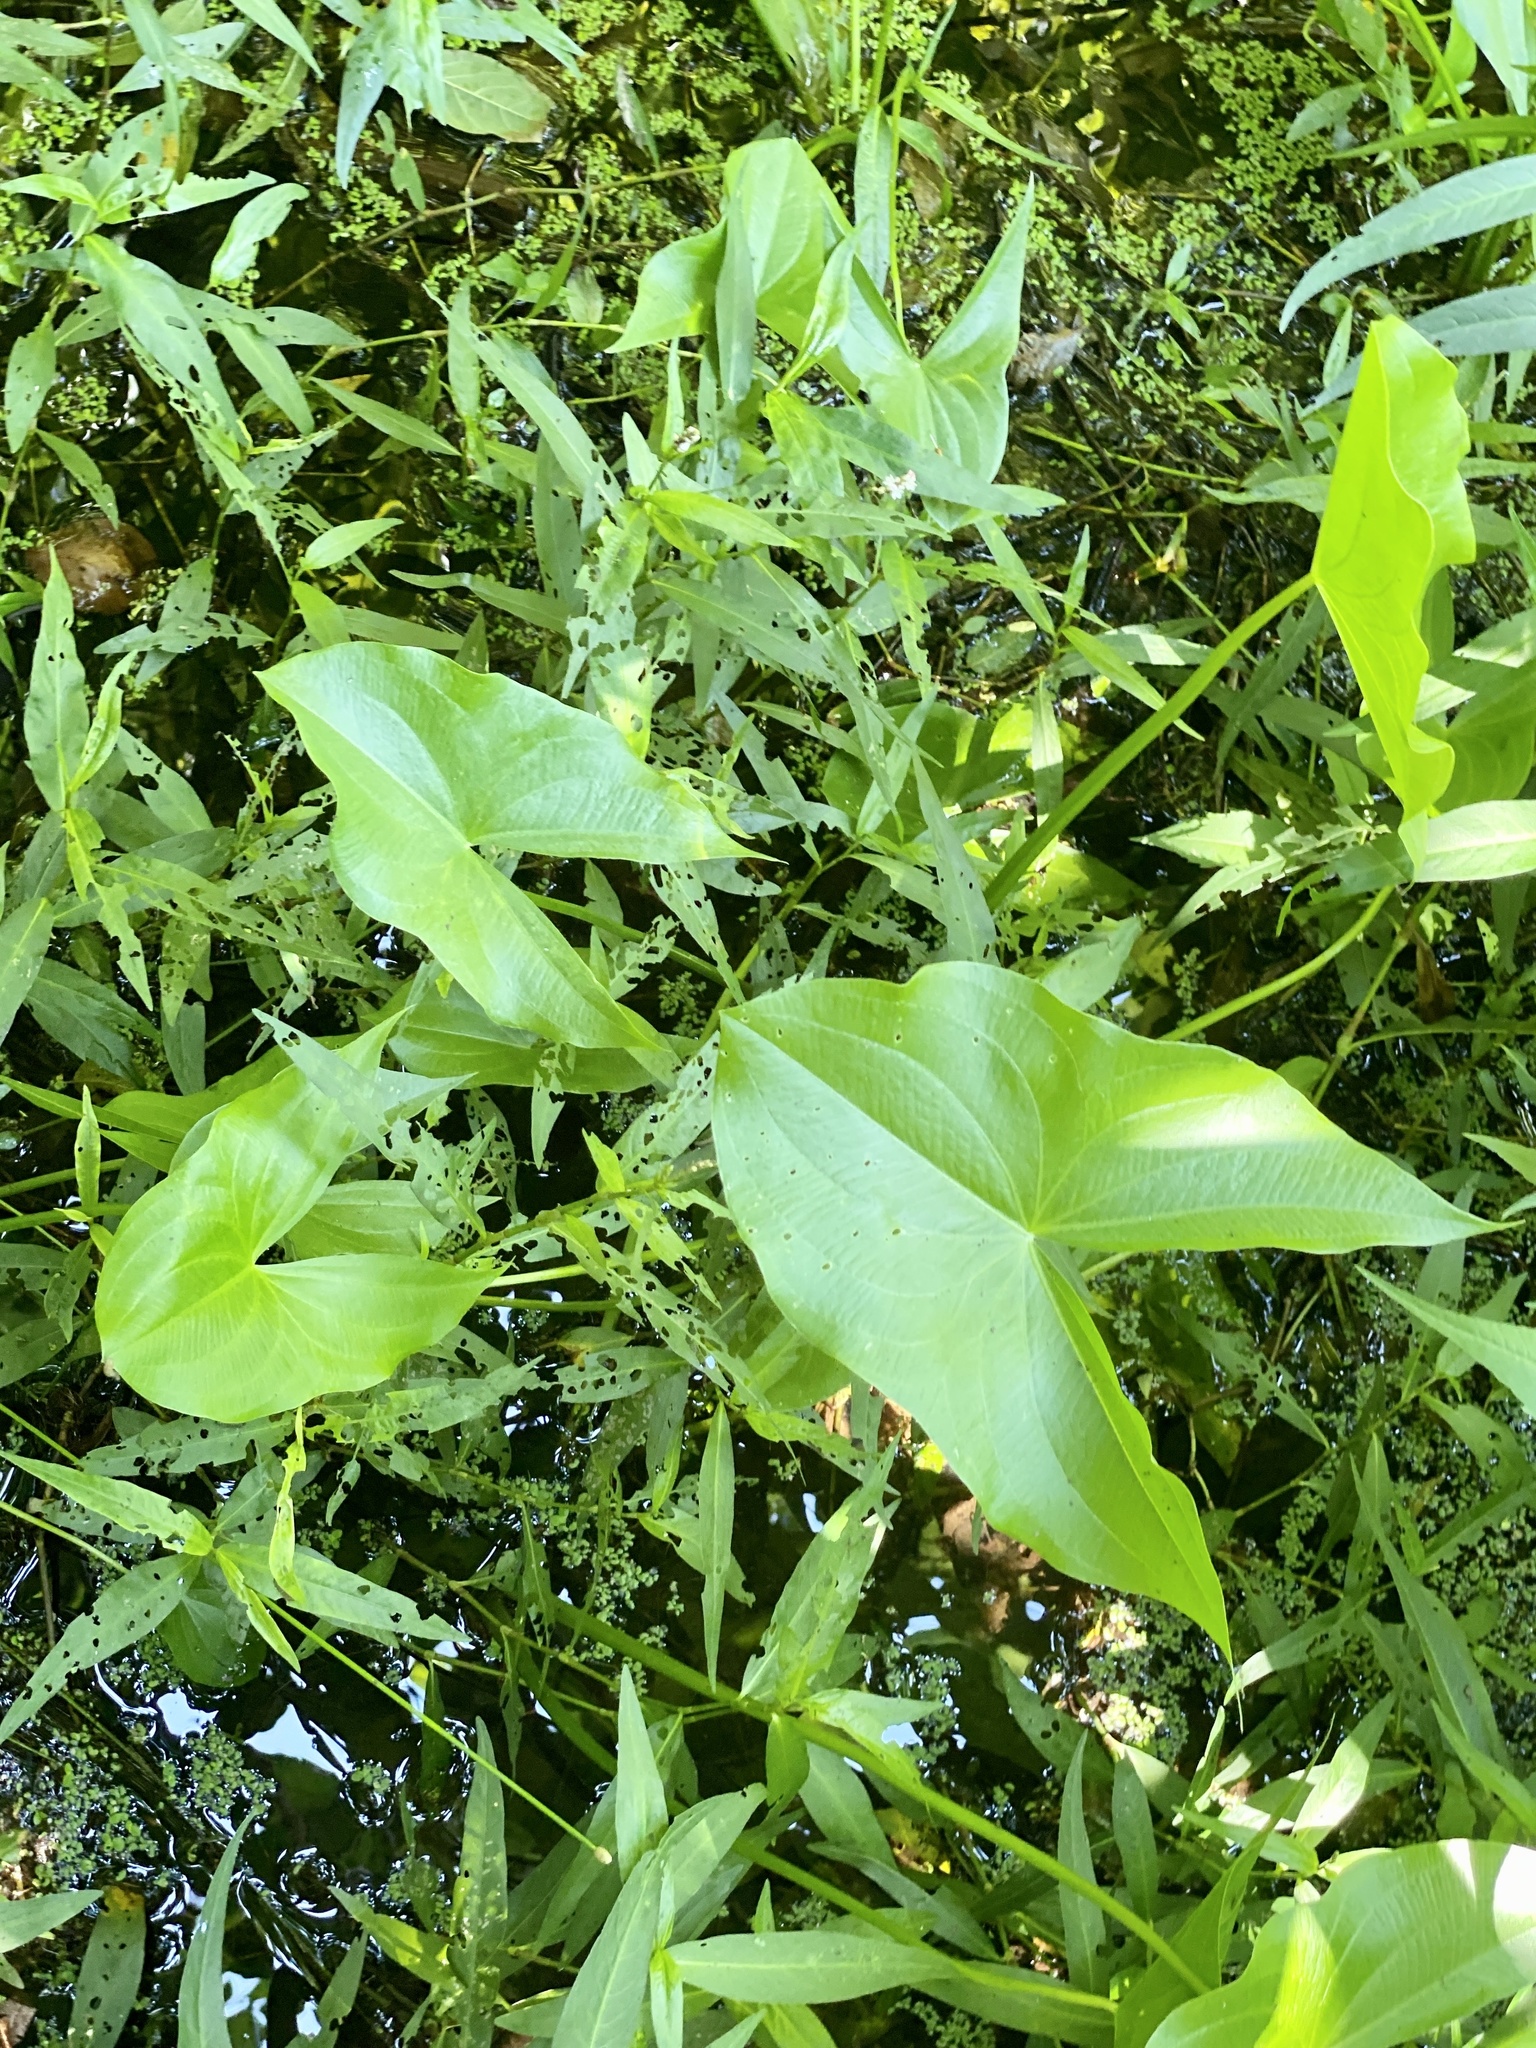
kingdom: Plantae
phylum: Tracheophyta
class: Liliopsida
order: Alismatales
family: Alismataceae
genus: Sagittaria
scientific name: Sagittaria latifolia
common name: Duck-potato
